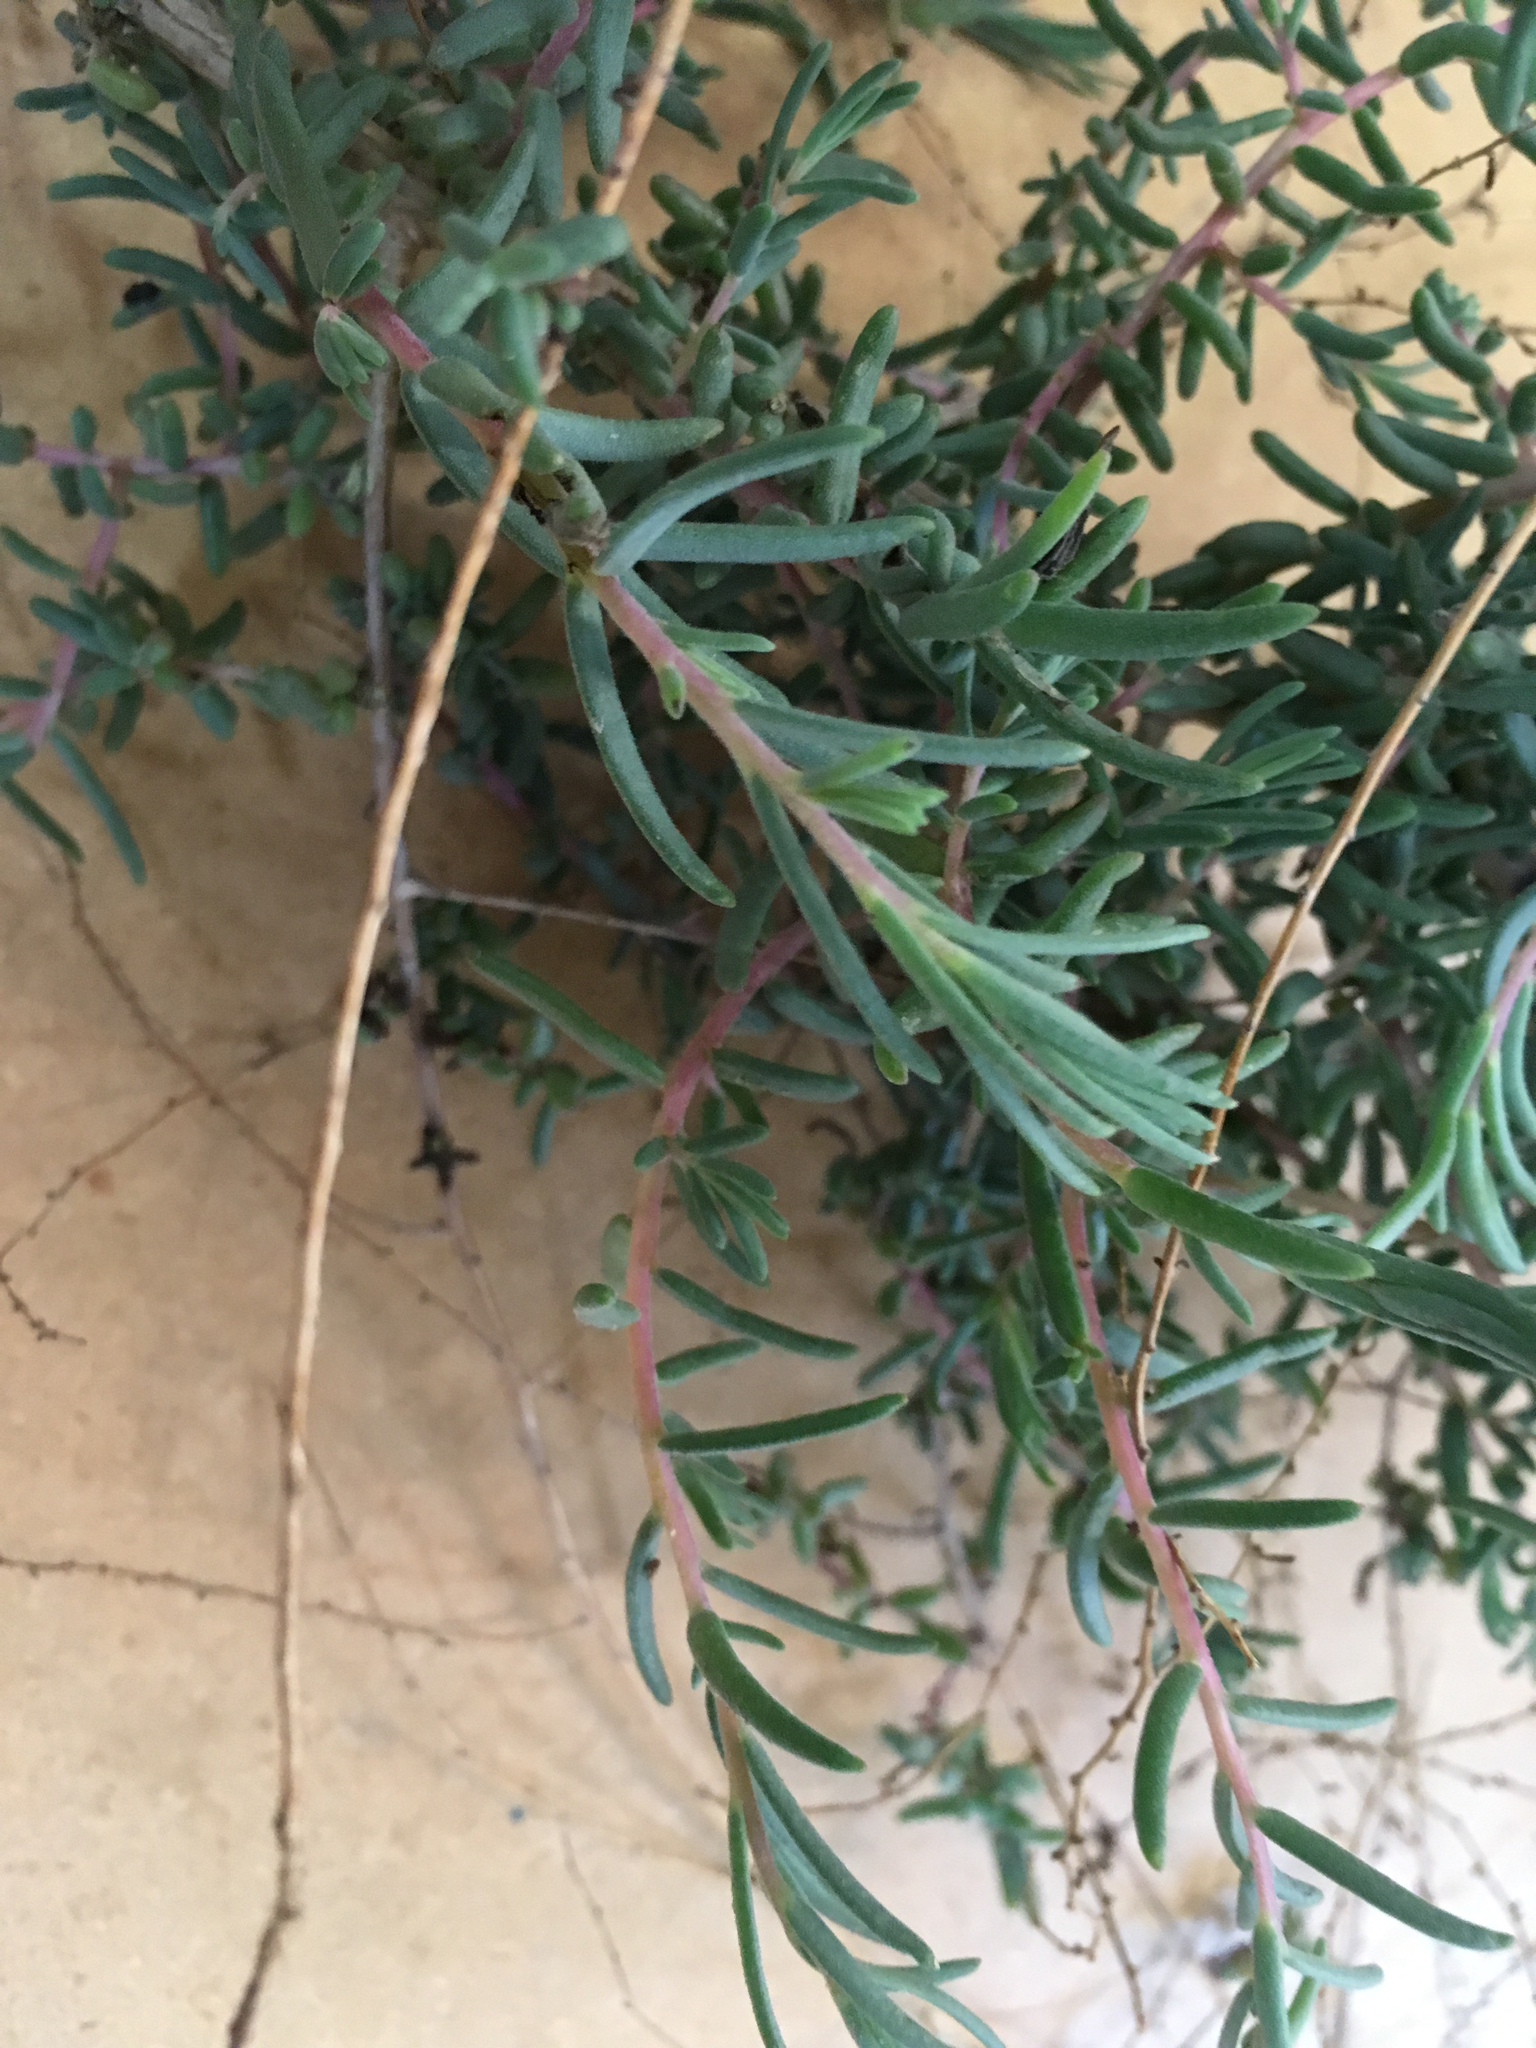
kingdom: Plantae
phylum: Tracheophyta
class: Magnoliopsida
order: Caryophyllales
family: Amaranthaceae
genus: Suaeda
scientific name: Suaeda nigra
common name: Bush seepweed
